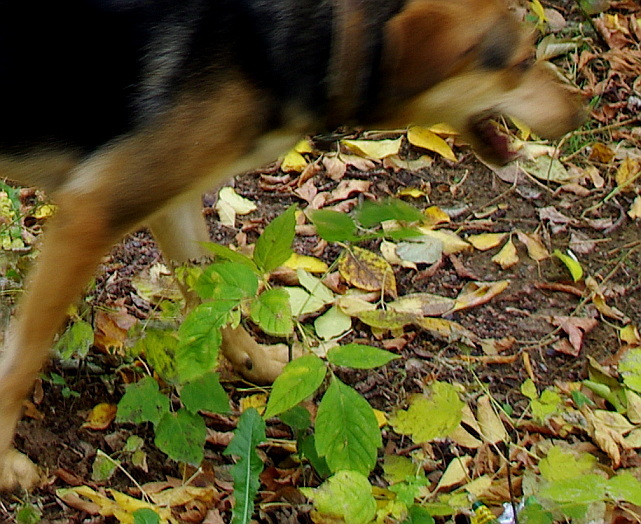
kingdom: Plantae
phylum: Tracheophyta
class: Magnoliopsida
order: Sapindales
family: Sapindaceae
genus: Acer
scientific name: Acer negundo
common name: Ashleaf maple
